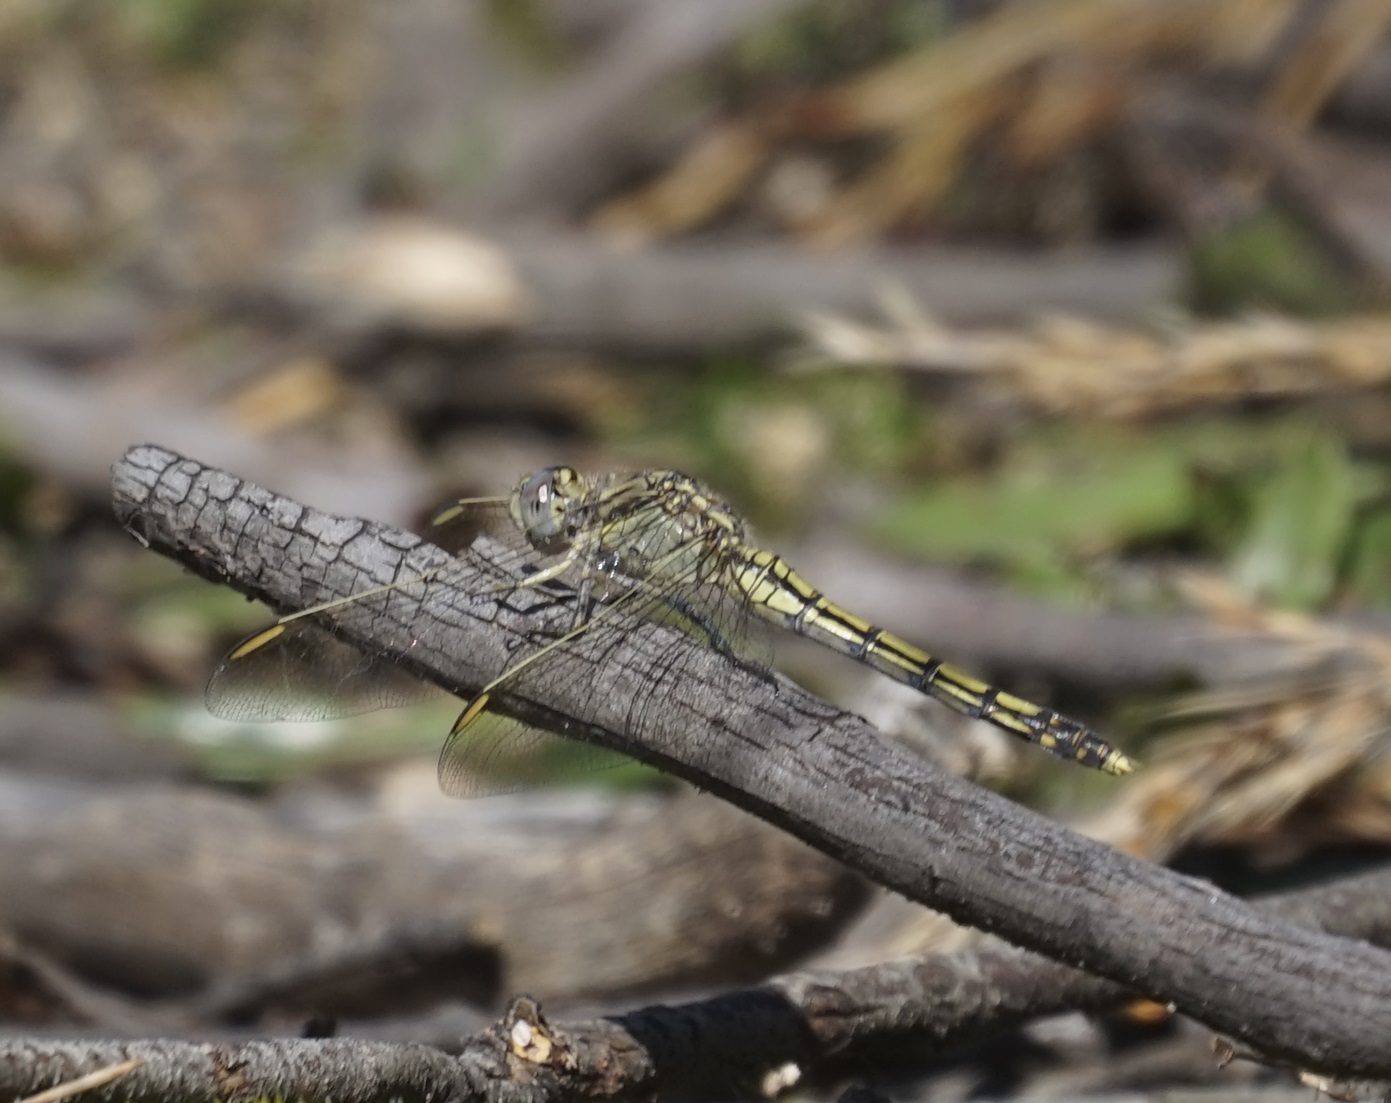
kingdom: Animalia
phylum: Arthropoda
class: Insecta
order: Odonata
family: Libellulidae
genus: Orthetrum
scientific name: Orthetrum caledonicum
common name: Blue skimmer
